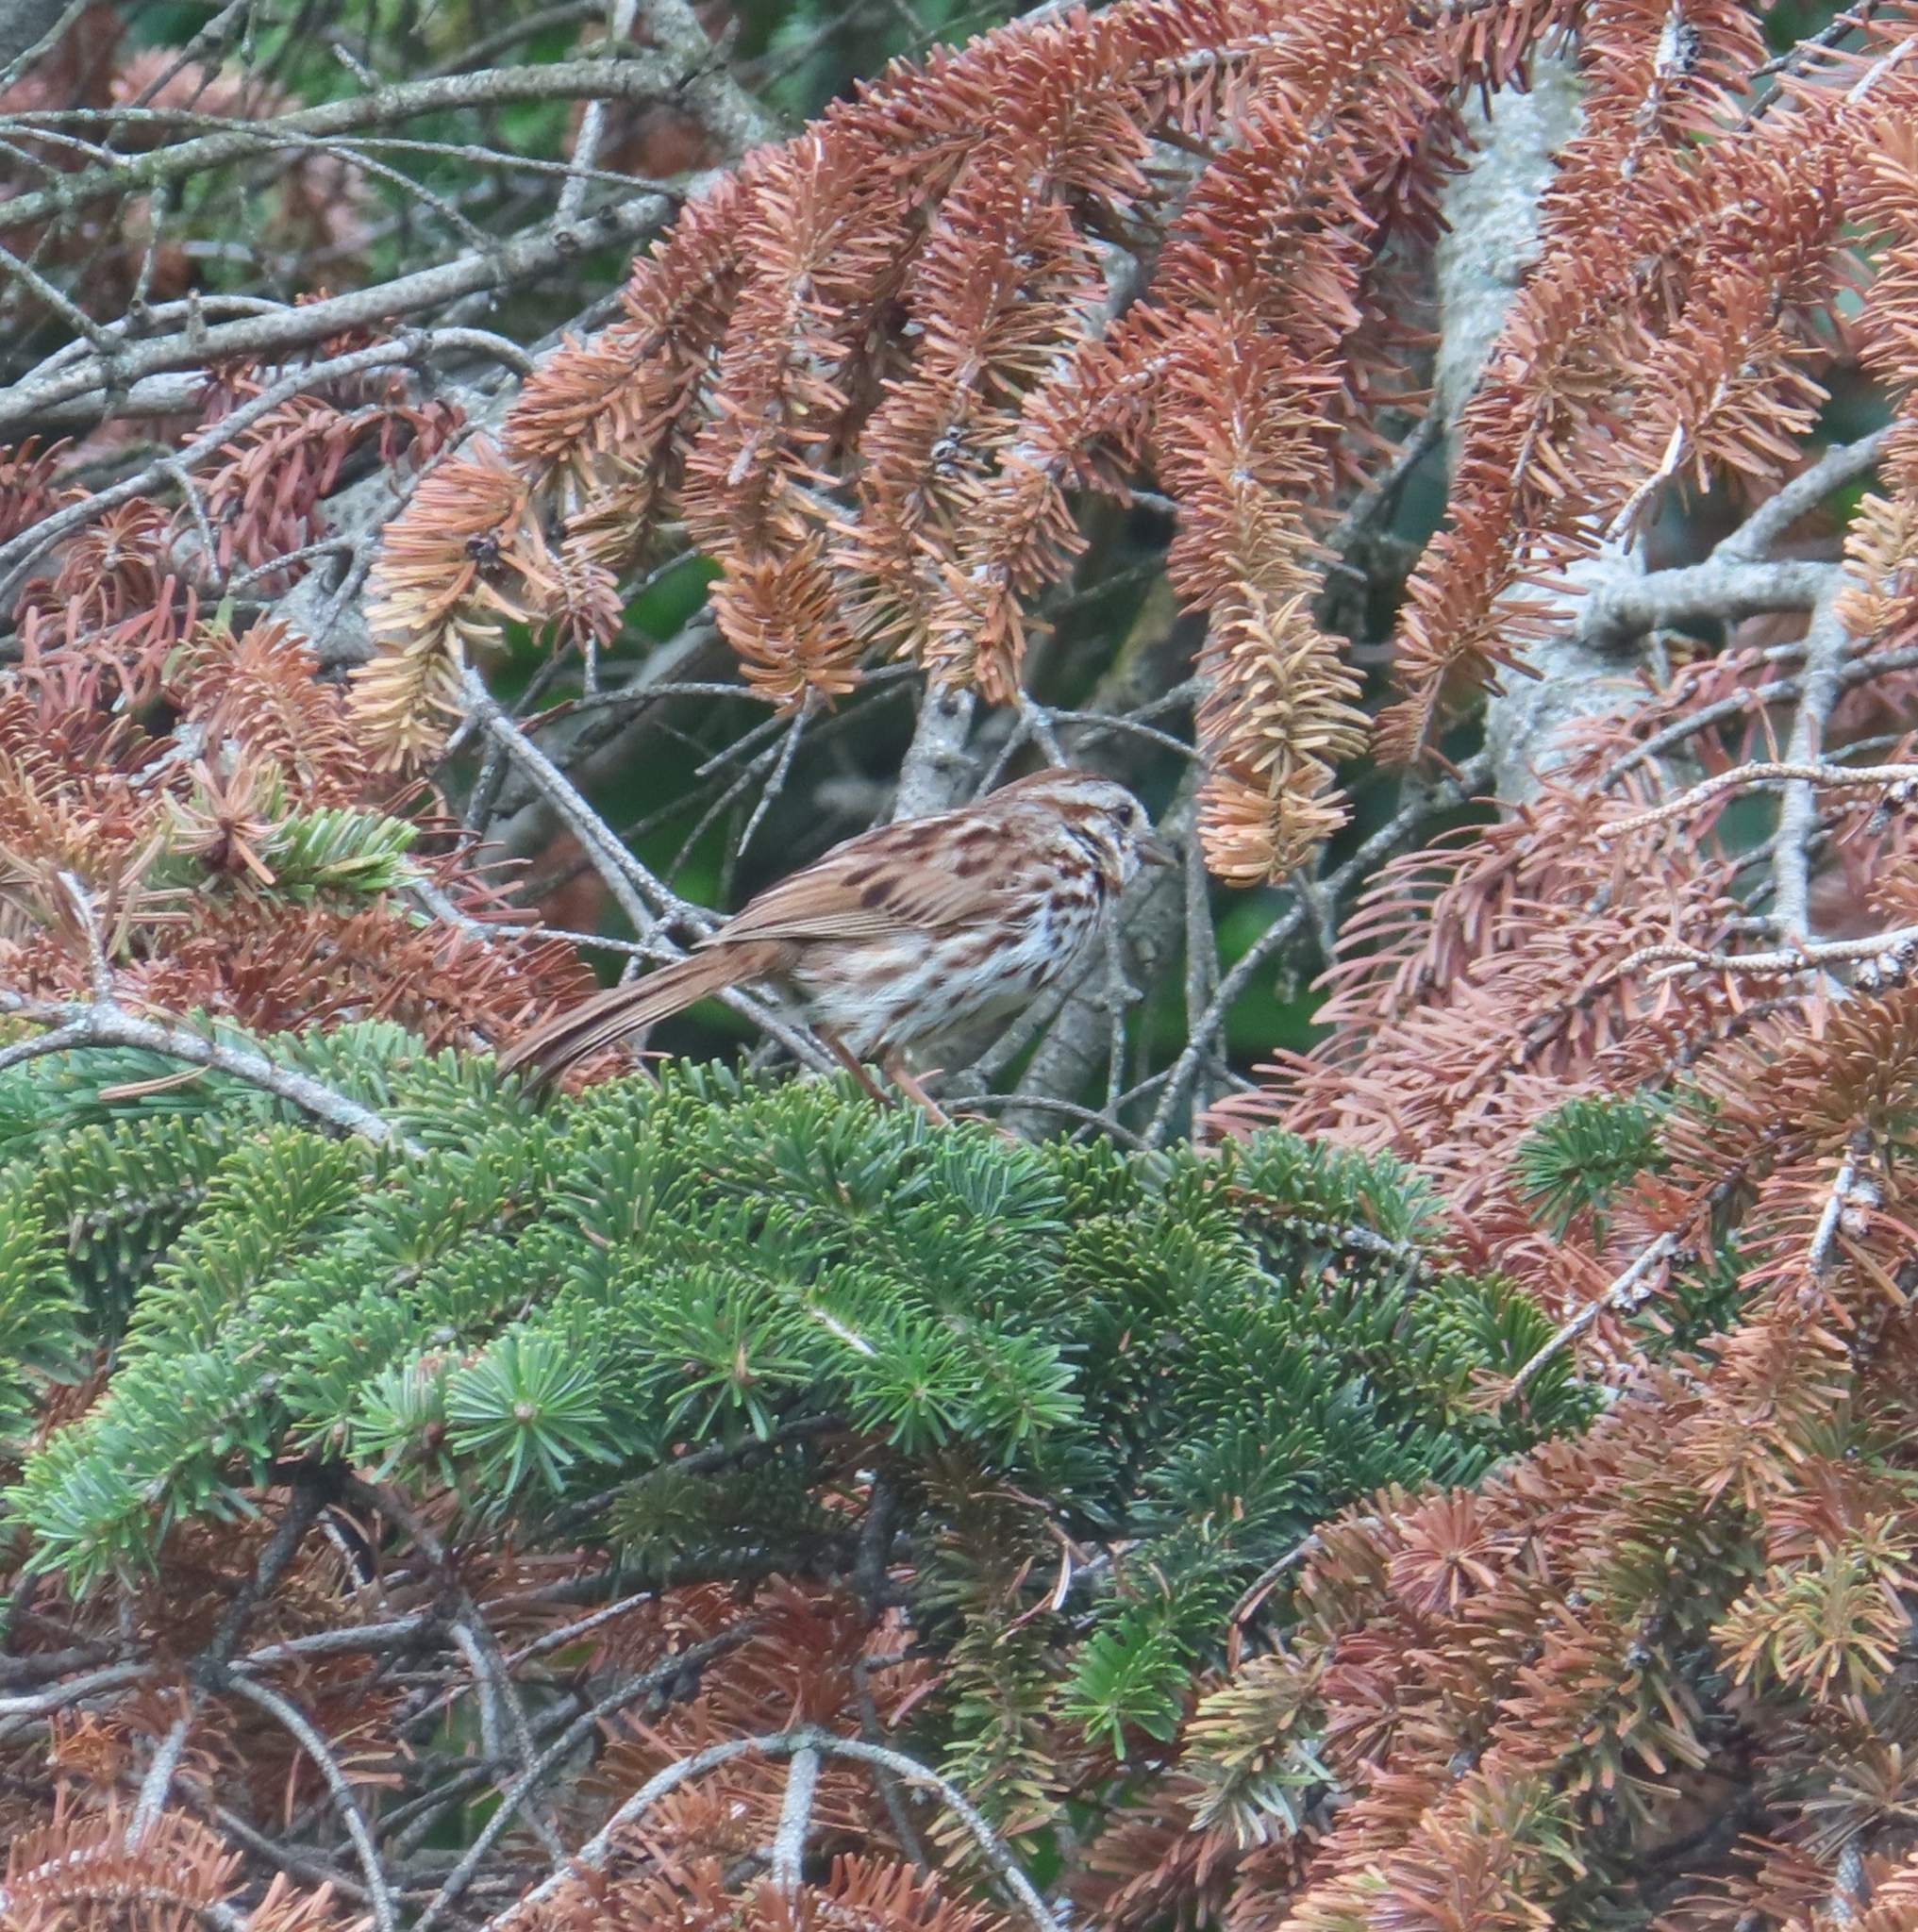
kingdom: Animalia
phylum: Chordata
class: Aves
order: Passeriformes
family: Passerellidae
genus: Melospiza
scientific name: Melospiza melodia
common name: Song sparrow
